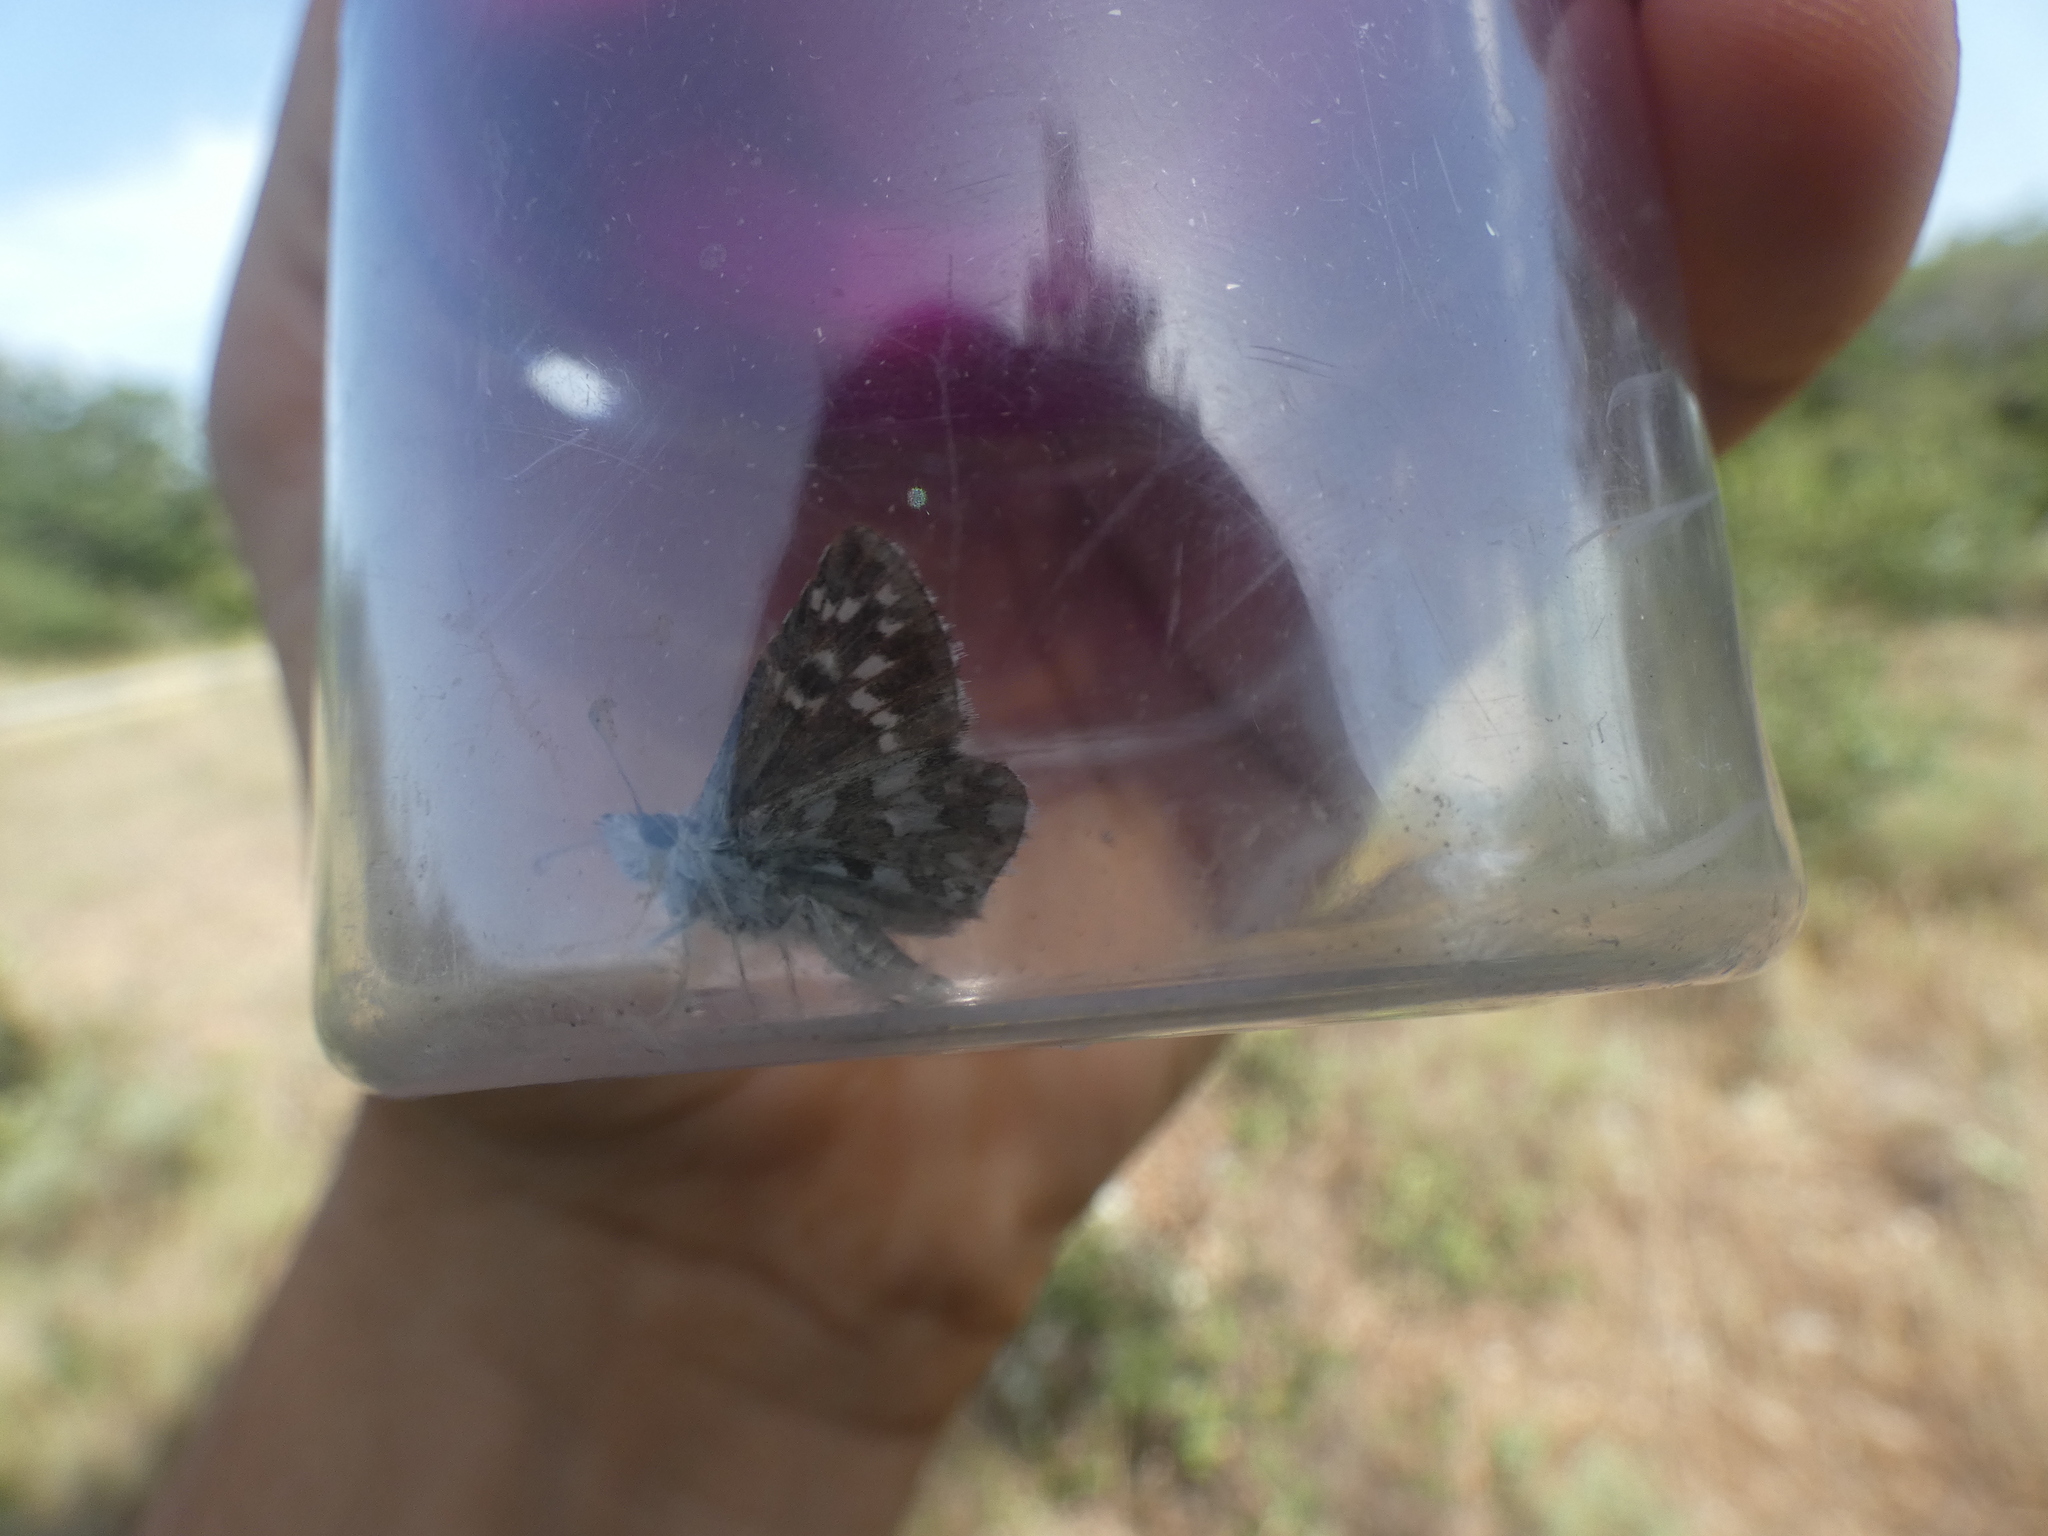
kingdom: Animalia
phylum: Arthropoda
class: Insecta
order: Lepidoptera
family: Hesperiidae
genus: Pyrgus
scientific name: Pyrgus onopordi
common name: Rosy grizzled skipper
